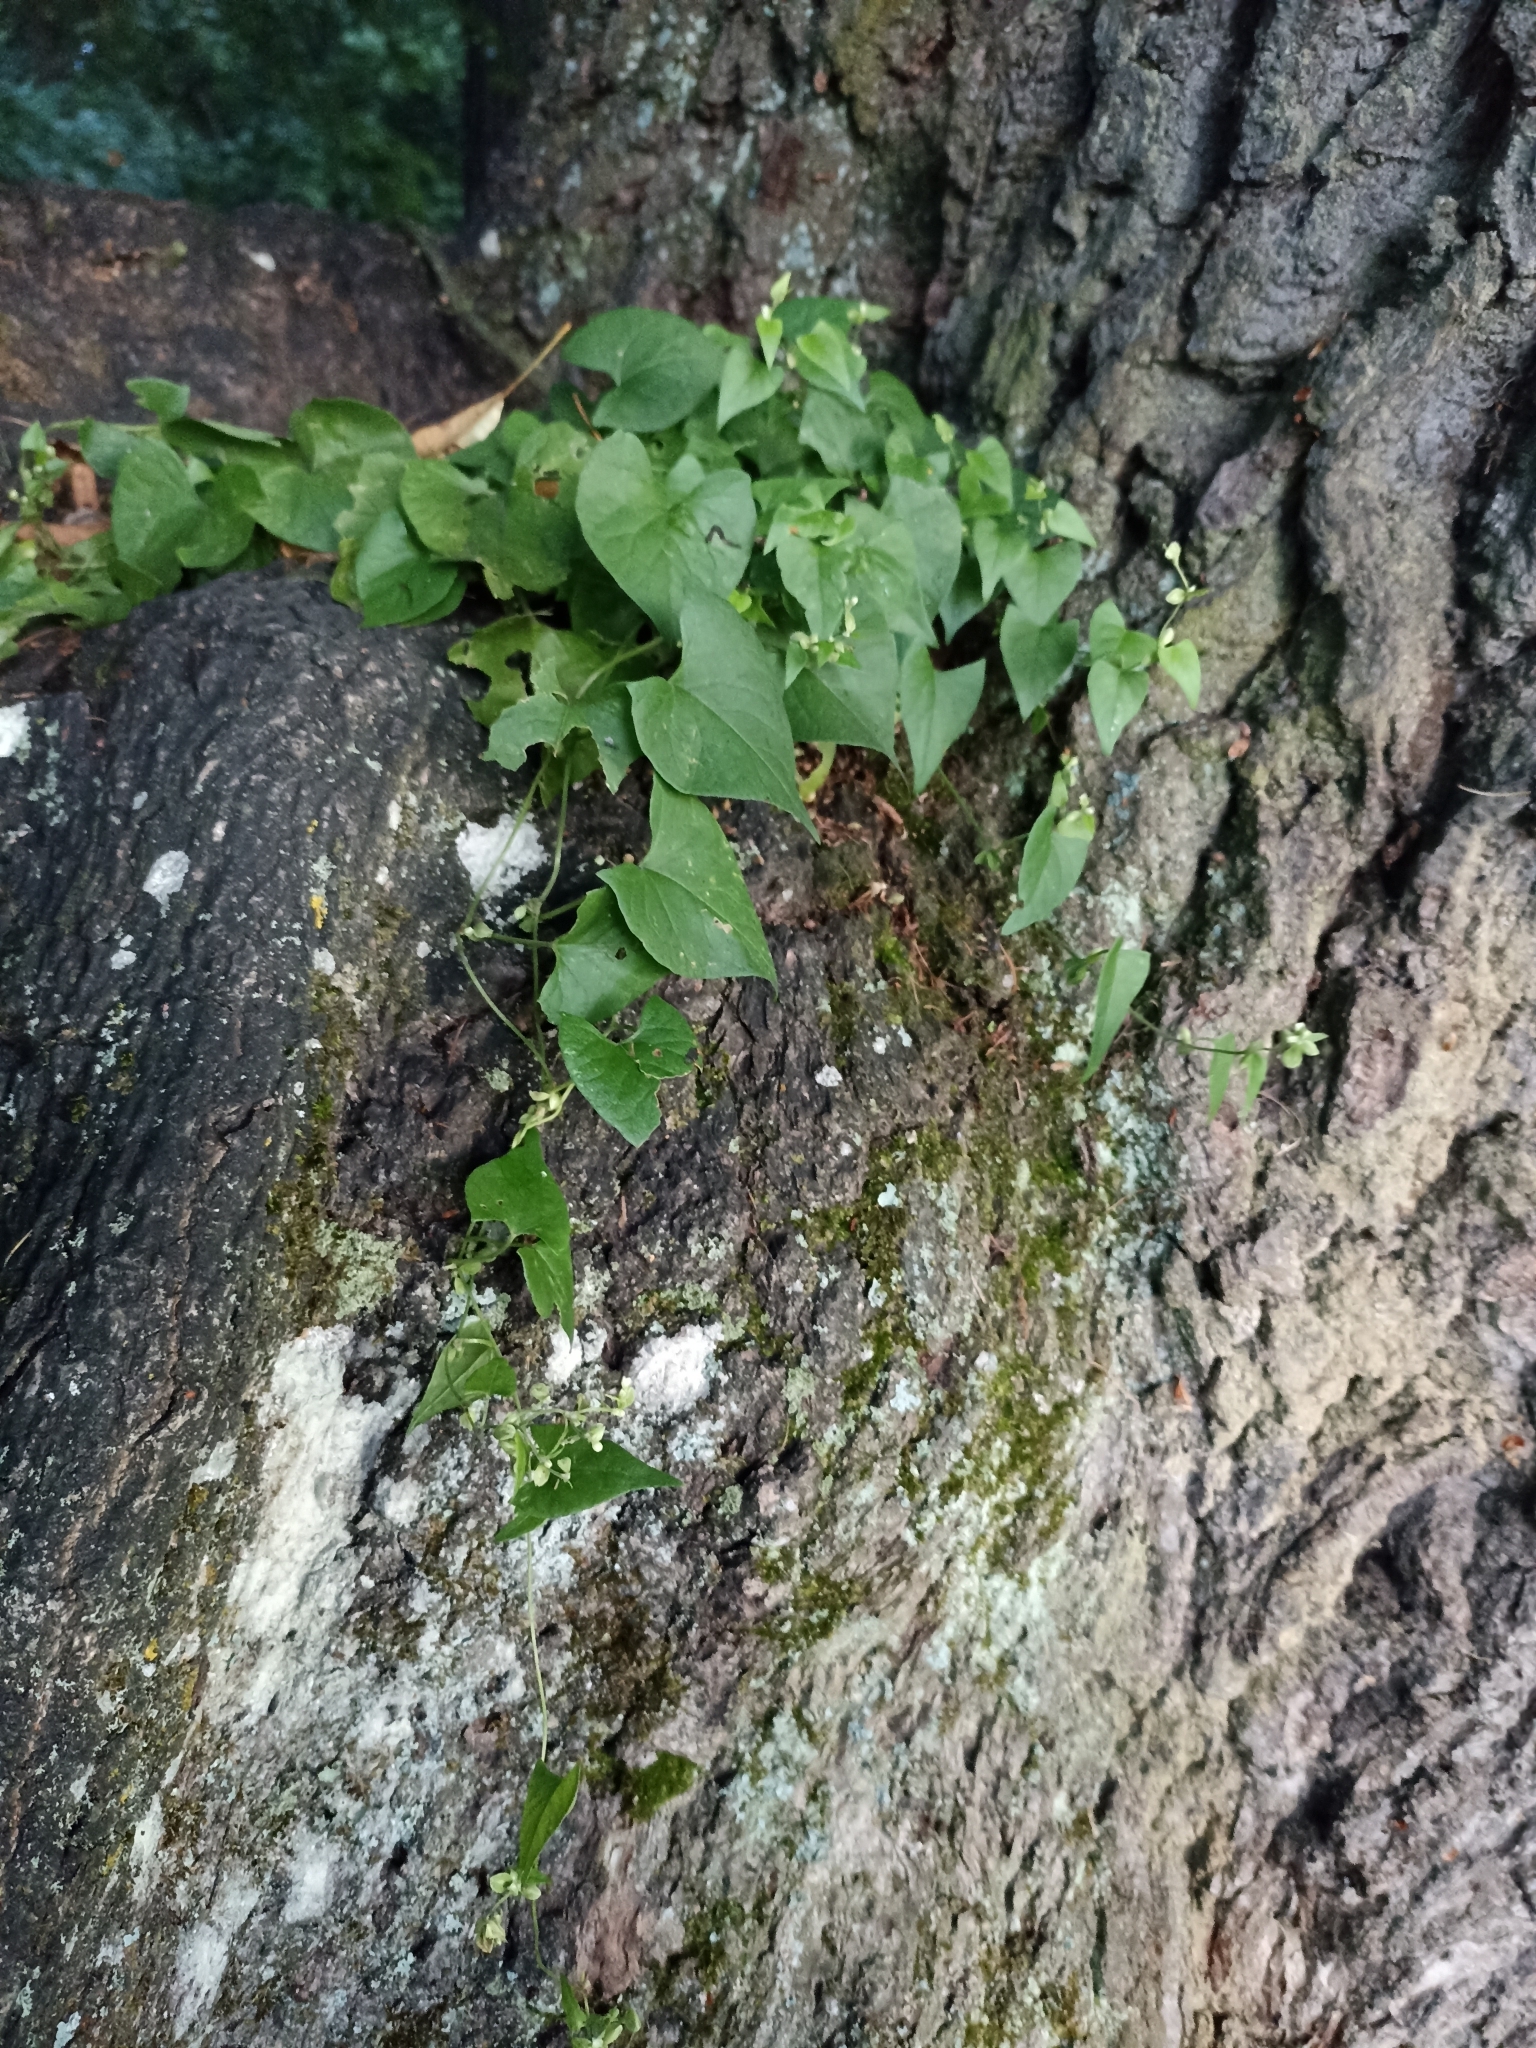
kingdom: Plantae
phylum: Tracheophyta
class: Magnoliopsida
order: Caryophyllales
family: Polygonaceae
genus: Fallopia
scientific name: Fallopia dumetorum
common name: Copse-bindweed
